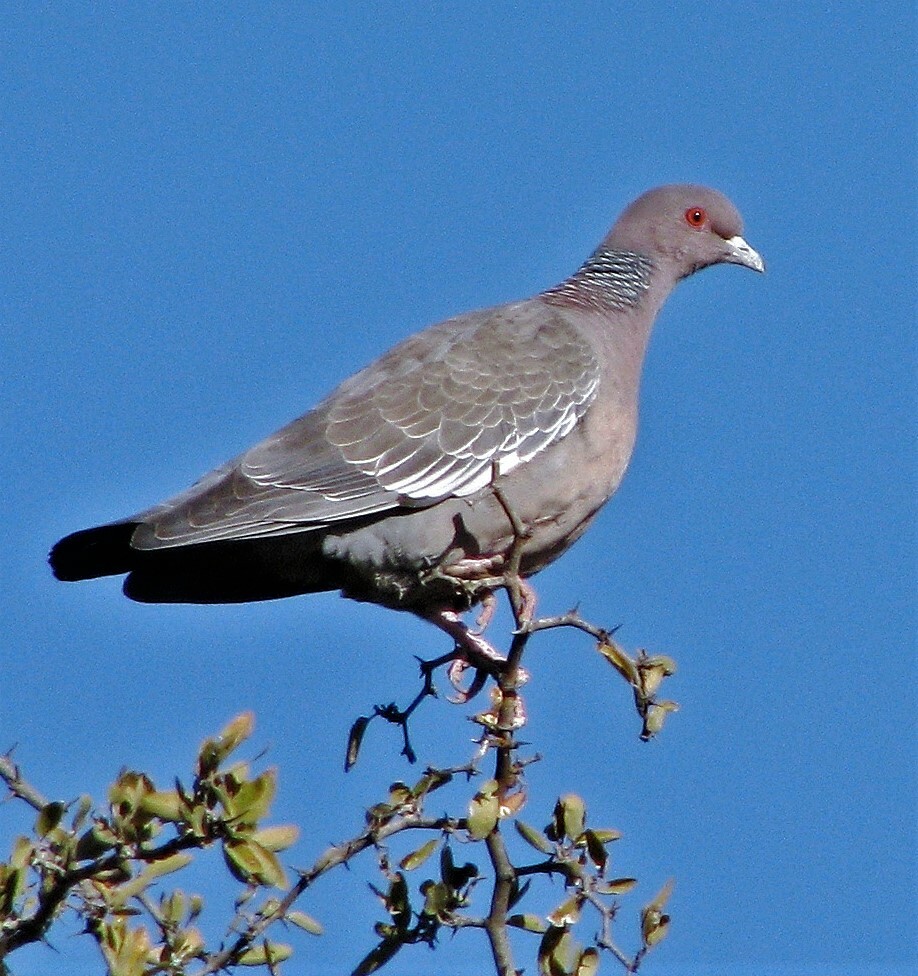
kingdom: Animalia
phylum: Chordata
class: Aves
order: Columbiformes
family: Columbidae
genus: Patagioenas
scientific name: Patagioenas picazuro
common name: Picazuro pigeon
